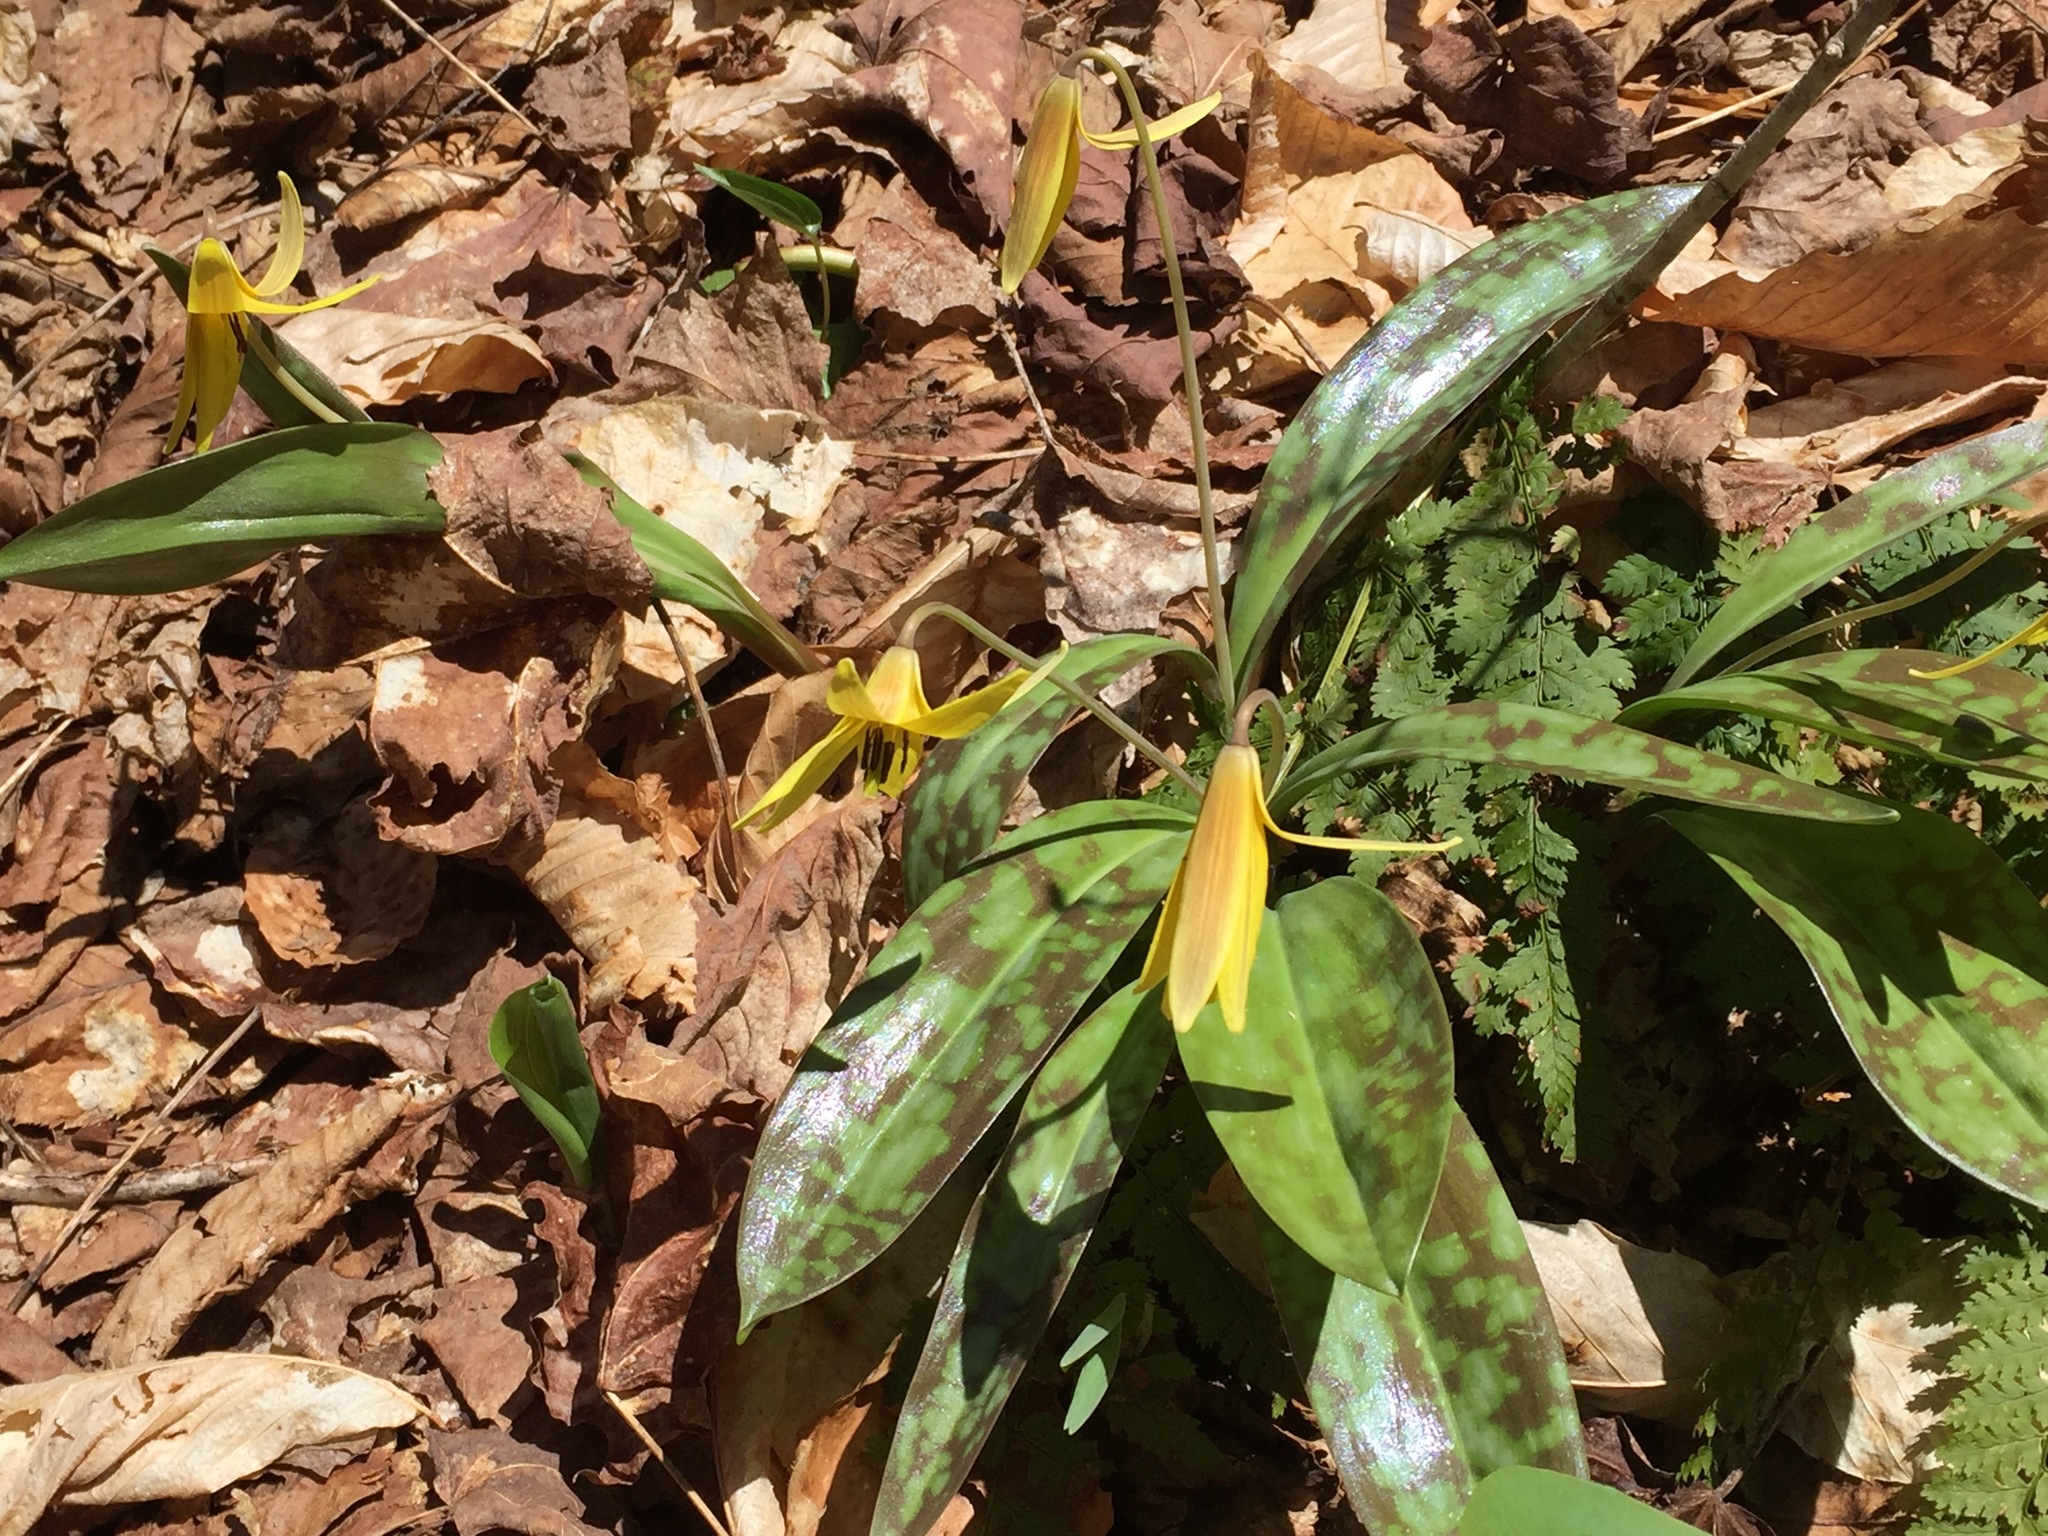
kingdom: Plantae
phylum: Tracheophyta
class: Liliopsida
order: Liliales
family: Liliaceae
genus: Erythronium
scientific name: Erythronium americanum
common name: Yellow adder's-tongue
